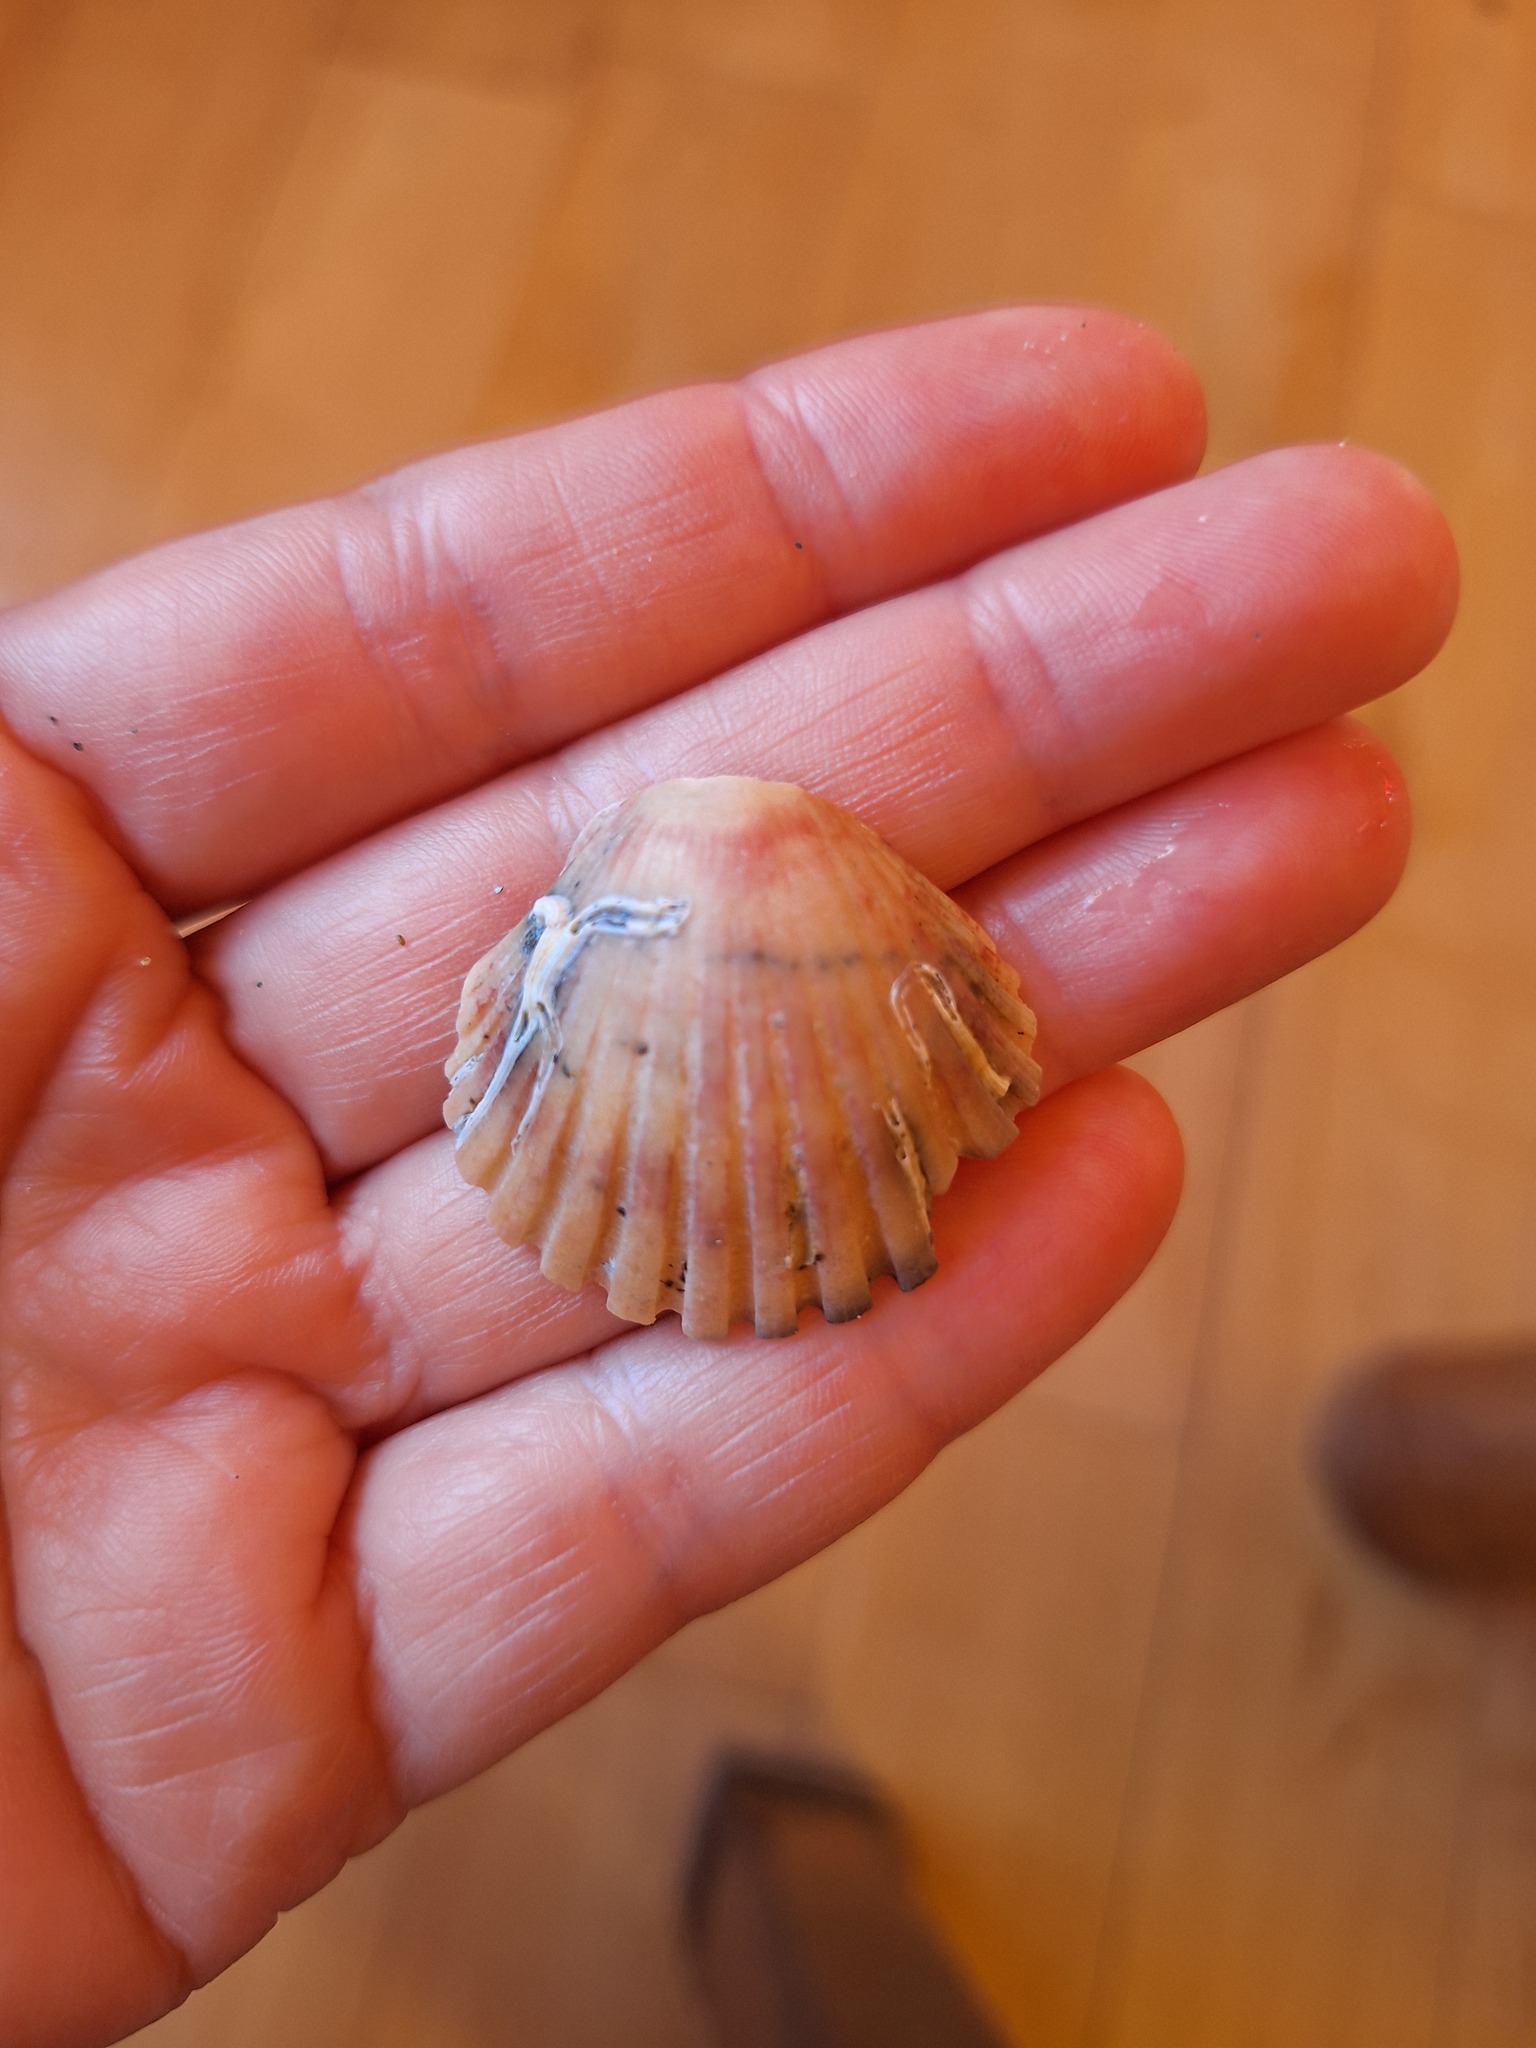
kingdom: Animalia
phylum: Mollusca
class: Bivalvia
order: Pectinida
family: Pectinidae
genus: Pecten
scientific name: Pecten jacobaeus
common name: St.james's scallop
